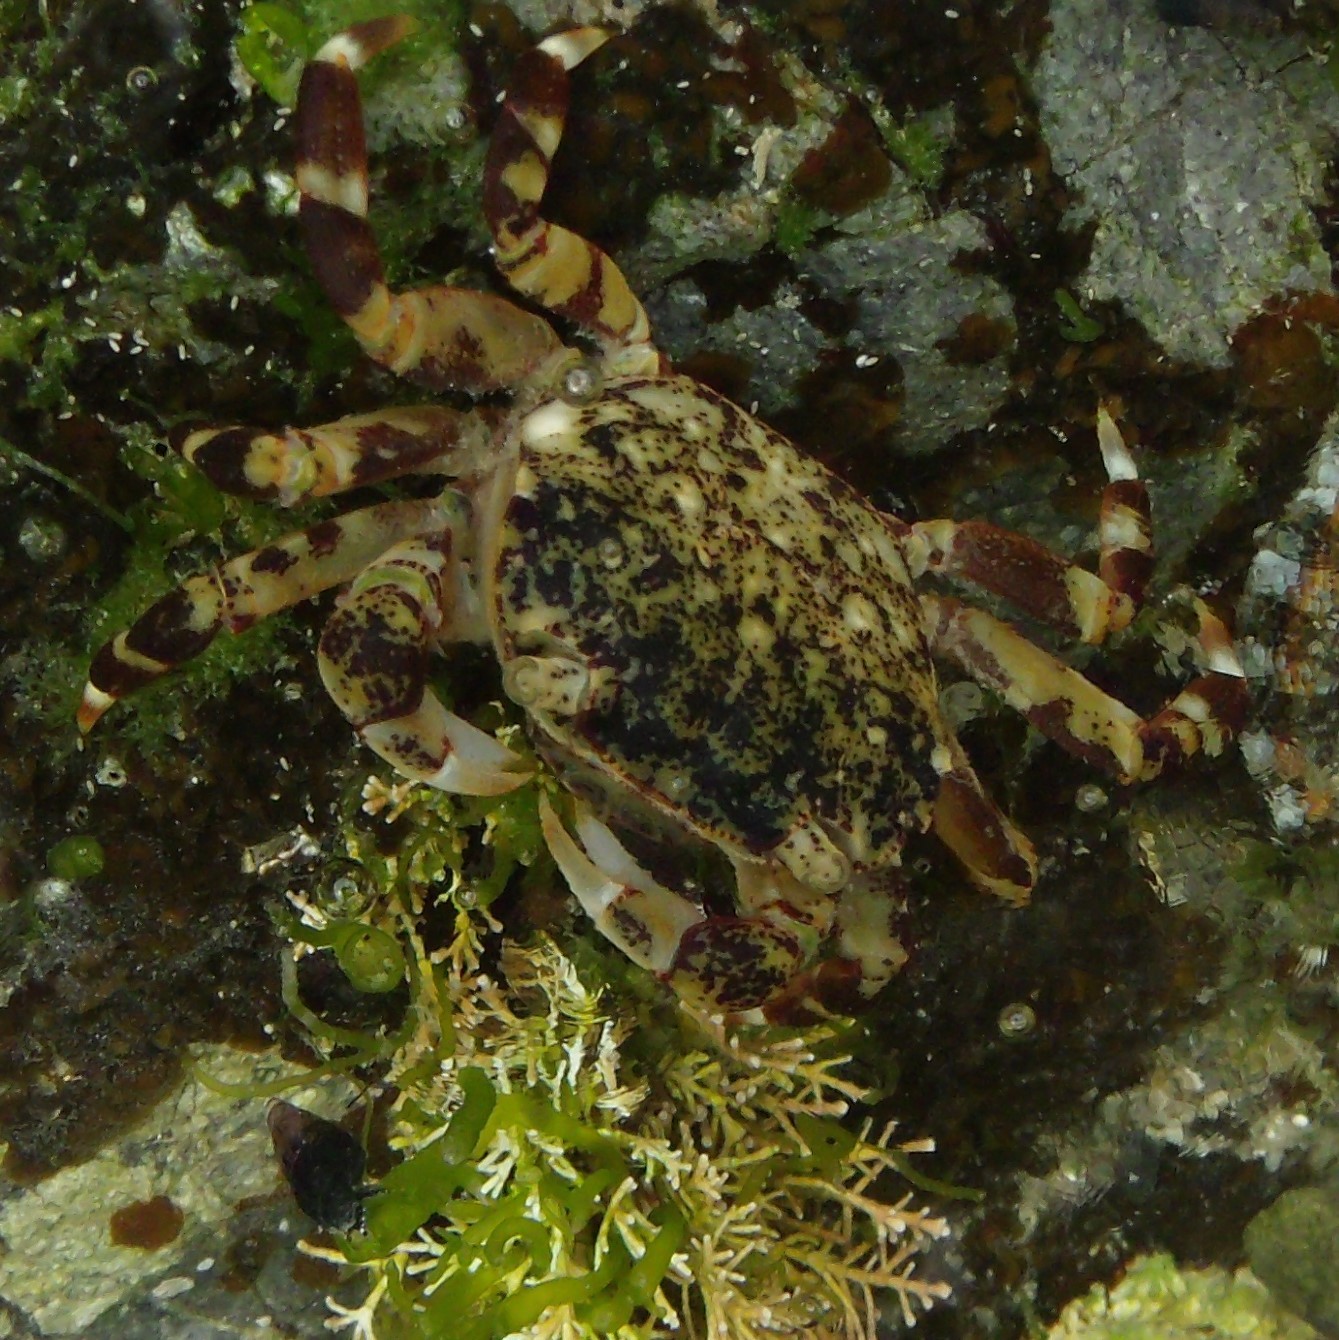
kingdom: Animalia
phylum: Arthropoda
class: Malacostraca
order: Decapoda
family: Varunidae
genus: Hemigrapsus
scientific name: Hemigrapsus sexdentatus
